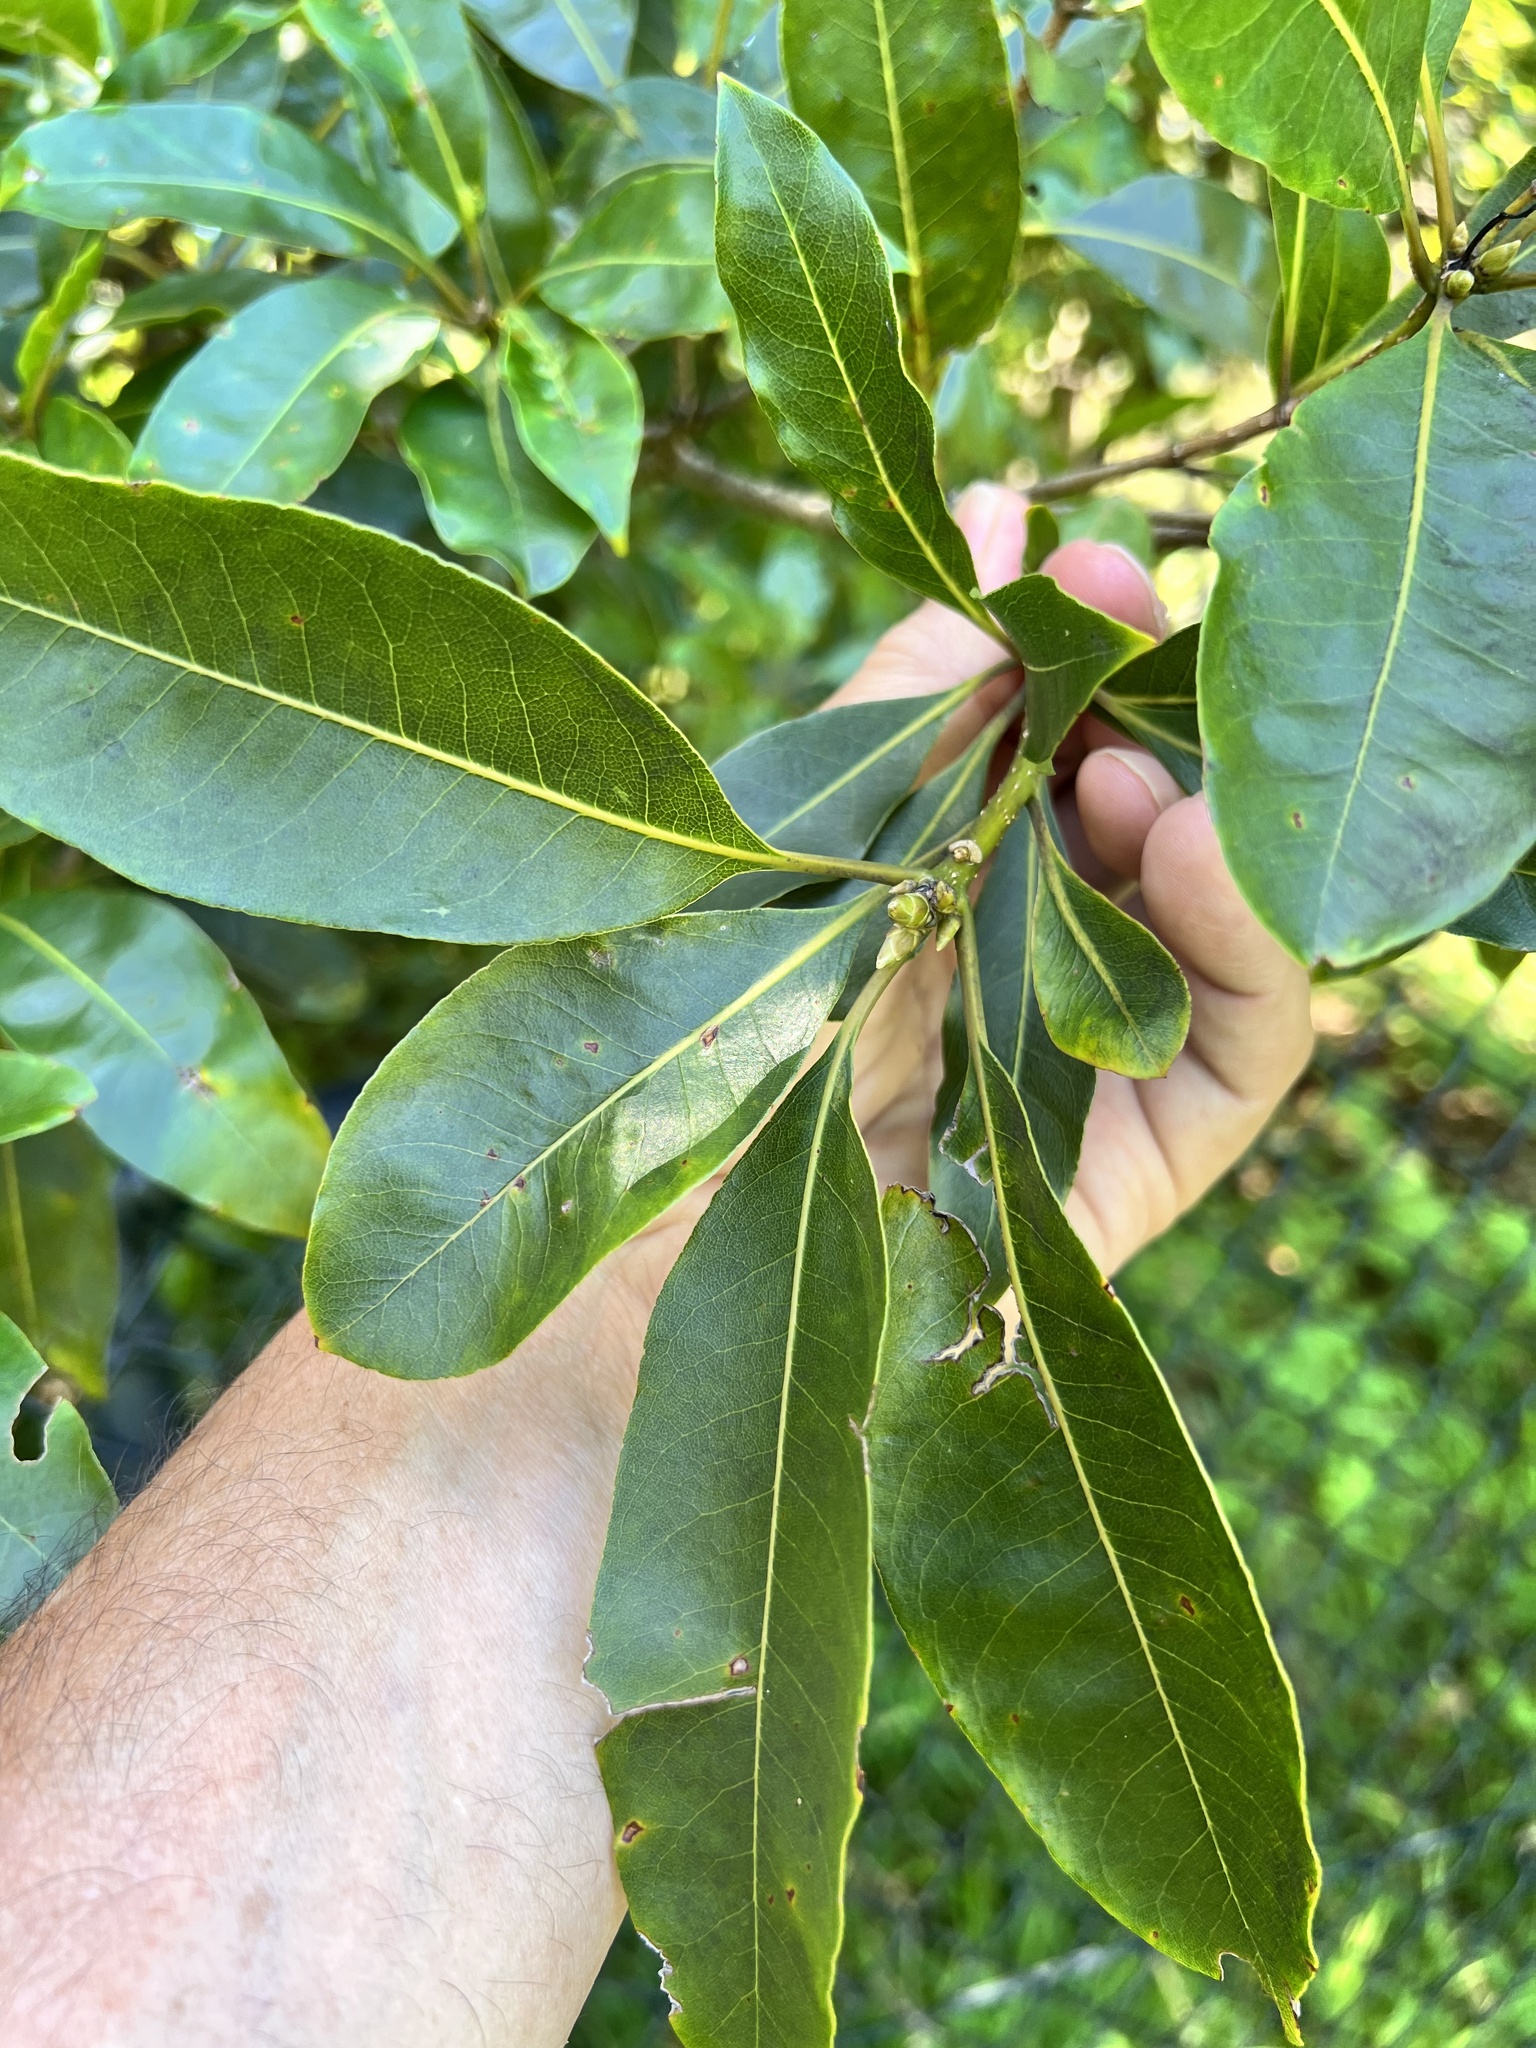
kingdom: Animalia
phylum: Arthropoda
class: Insecta
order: Diptera
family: Agromyzidae
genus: Phytoliriomyza
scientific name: Phytoliriomyza pittosporophylli
